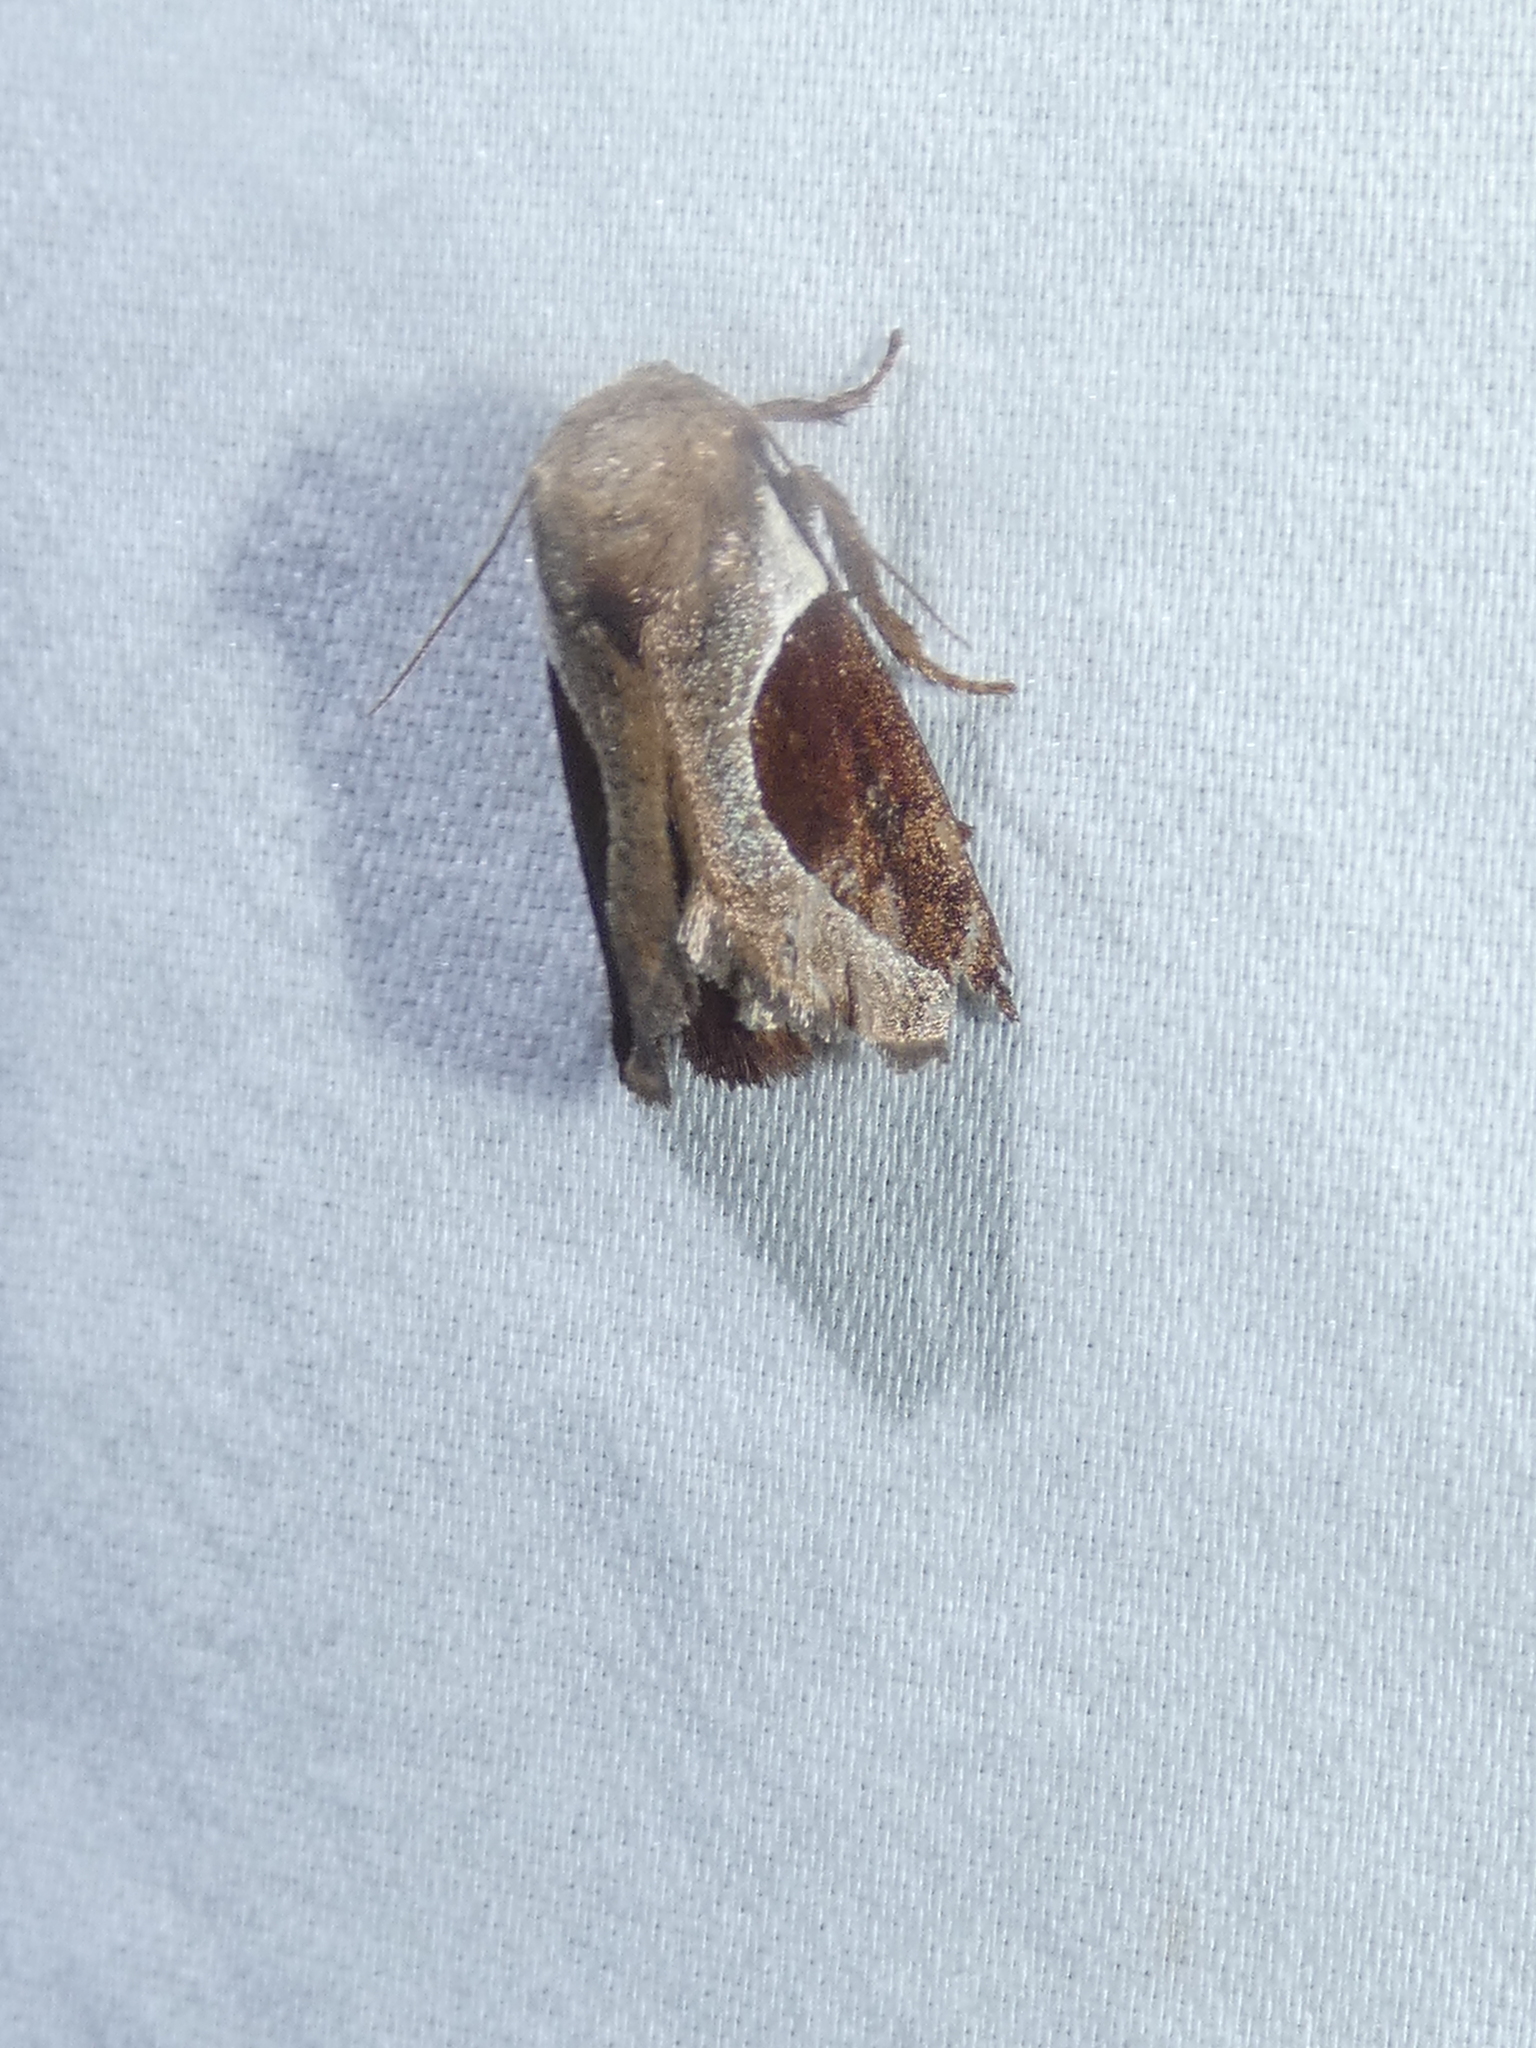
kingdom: Animalia
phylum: Arthropoda
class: Insecta
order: Lepidoptera
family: Limacodidae
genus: Prolimacodes
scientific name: Prolimacodes badia
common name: Skiff moth
